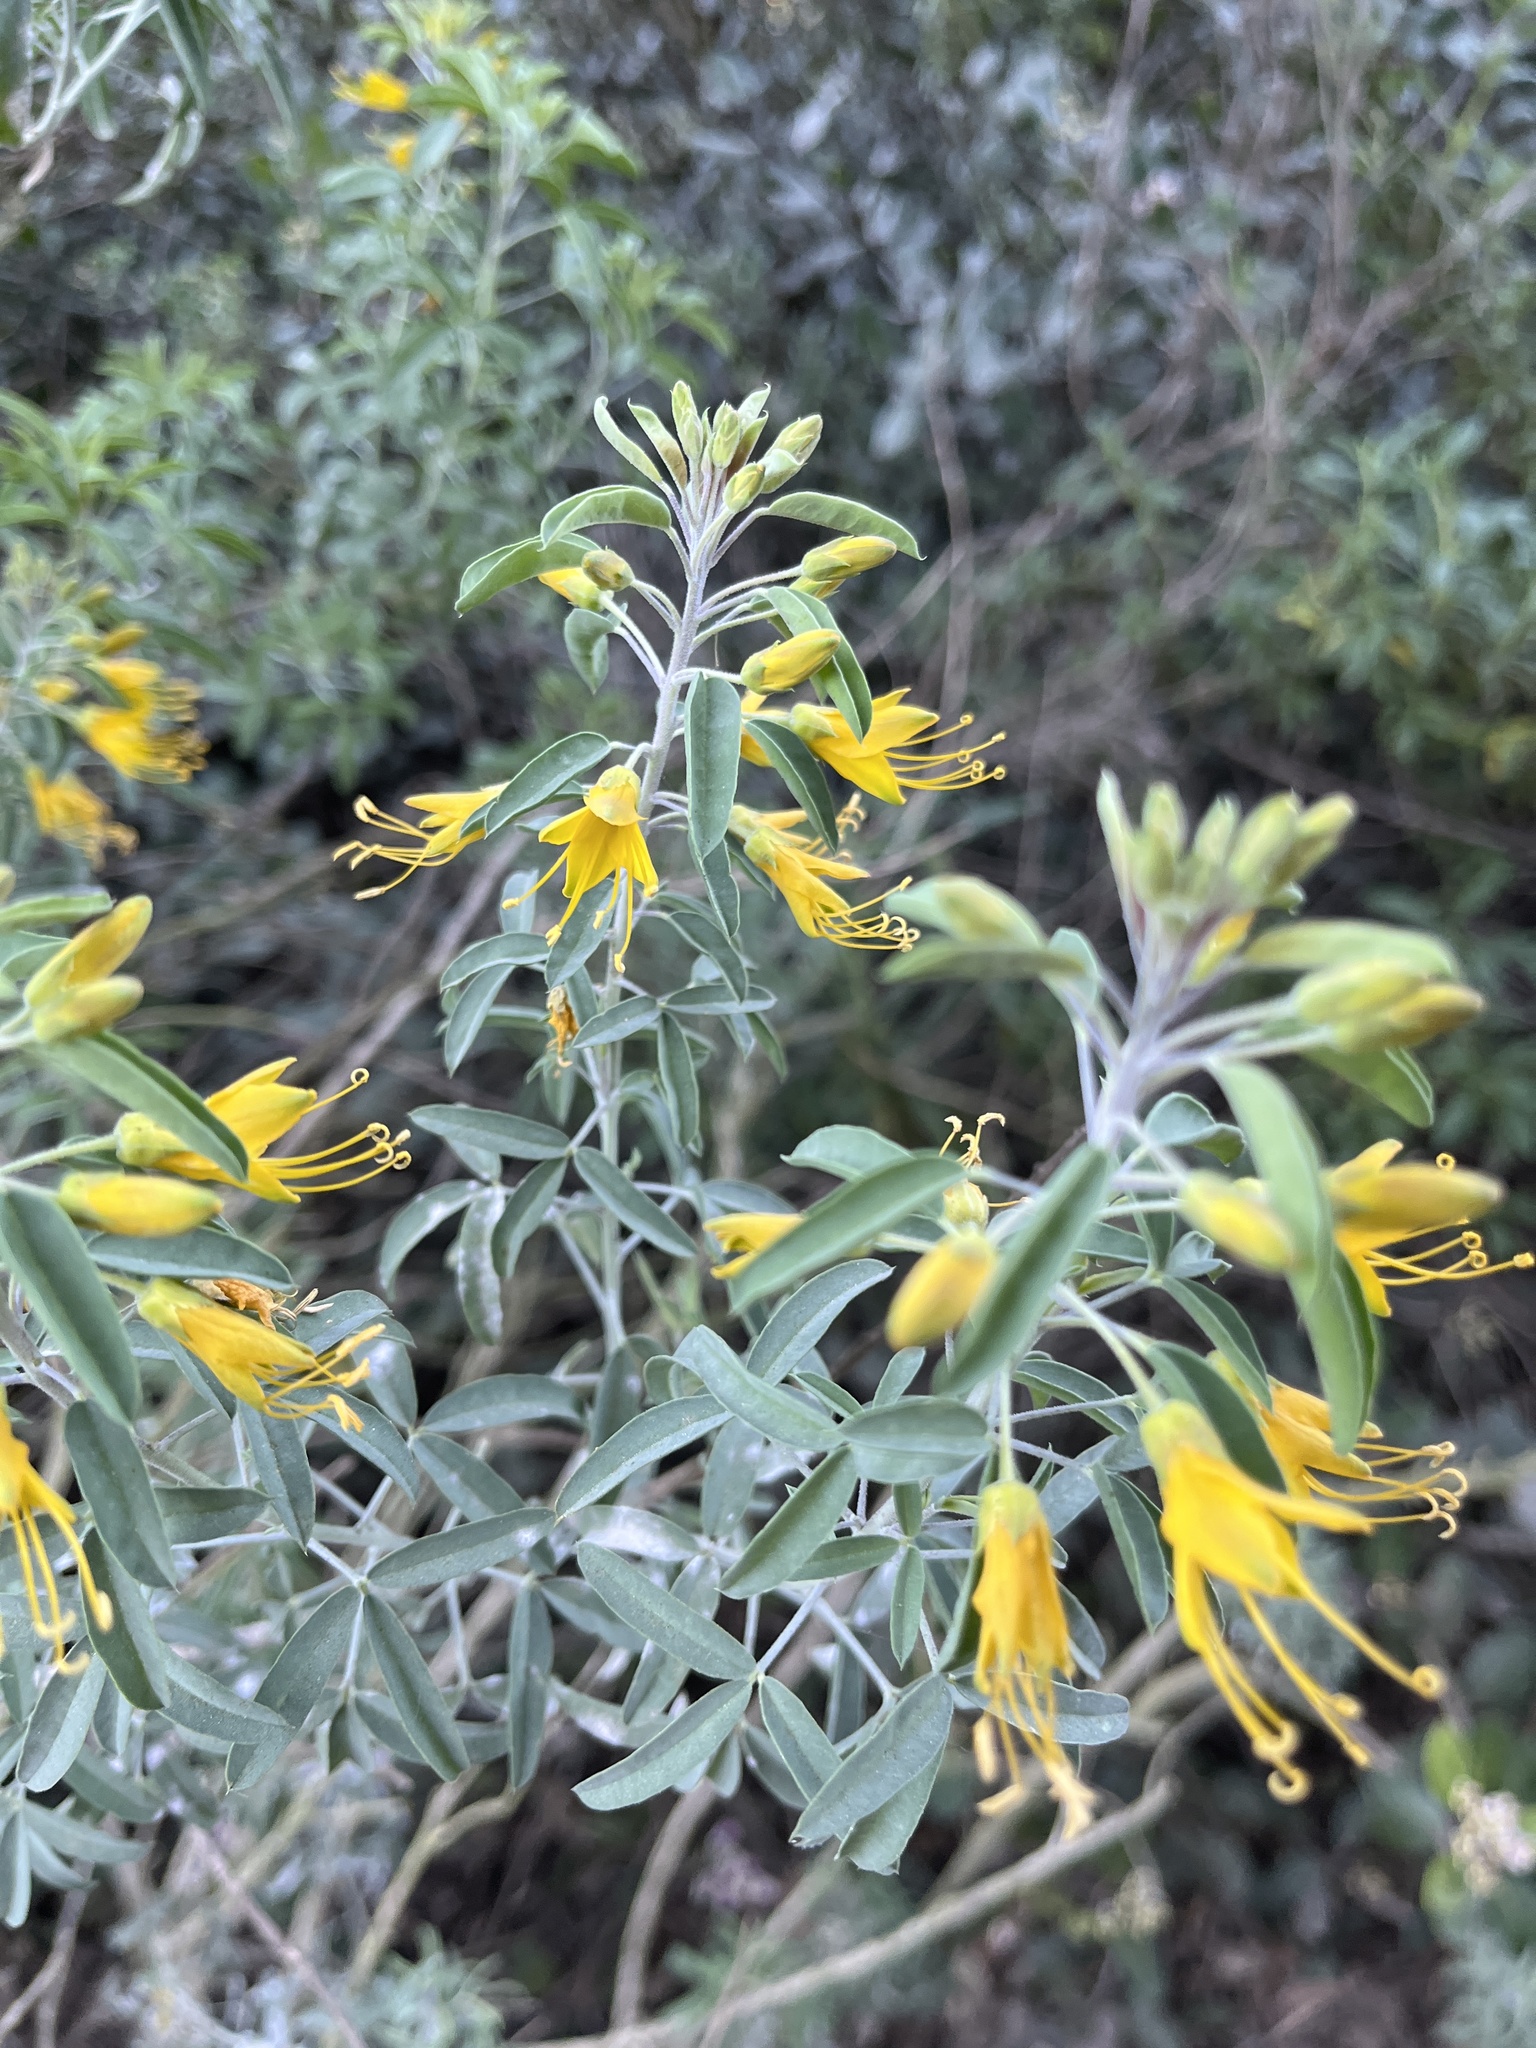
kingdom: Plantae
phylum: Tracheophyta
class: Magnoliopsida
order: Brassicales
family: Cleomaceae
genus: Cleomella
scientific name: Cleomella arborea
